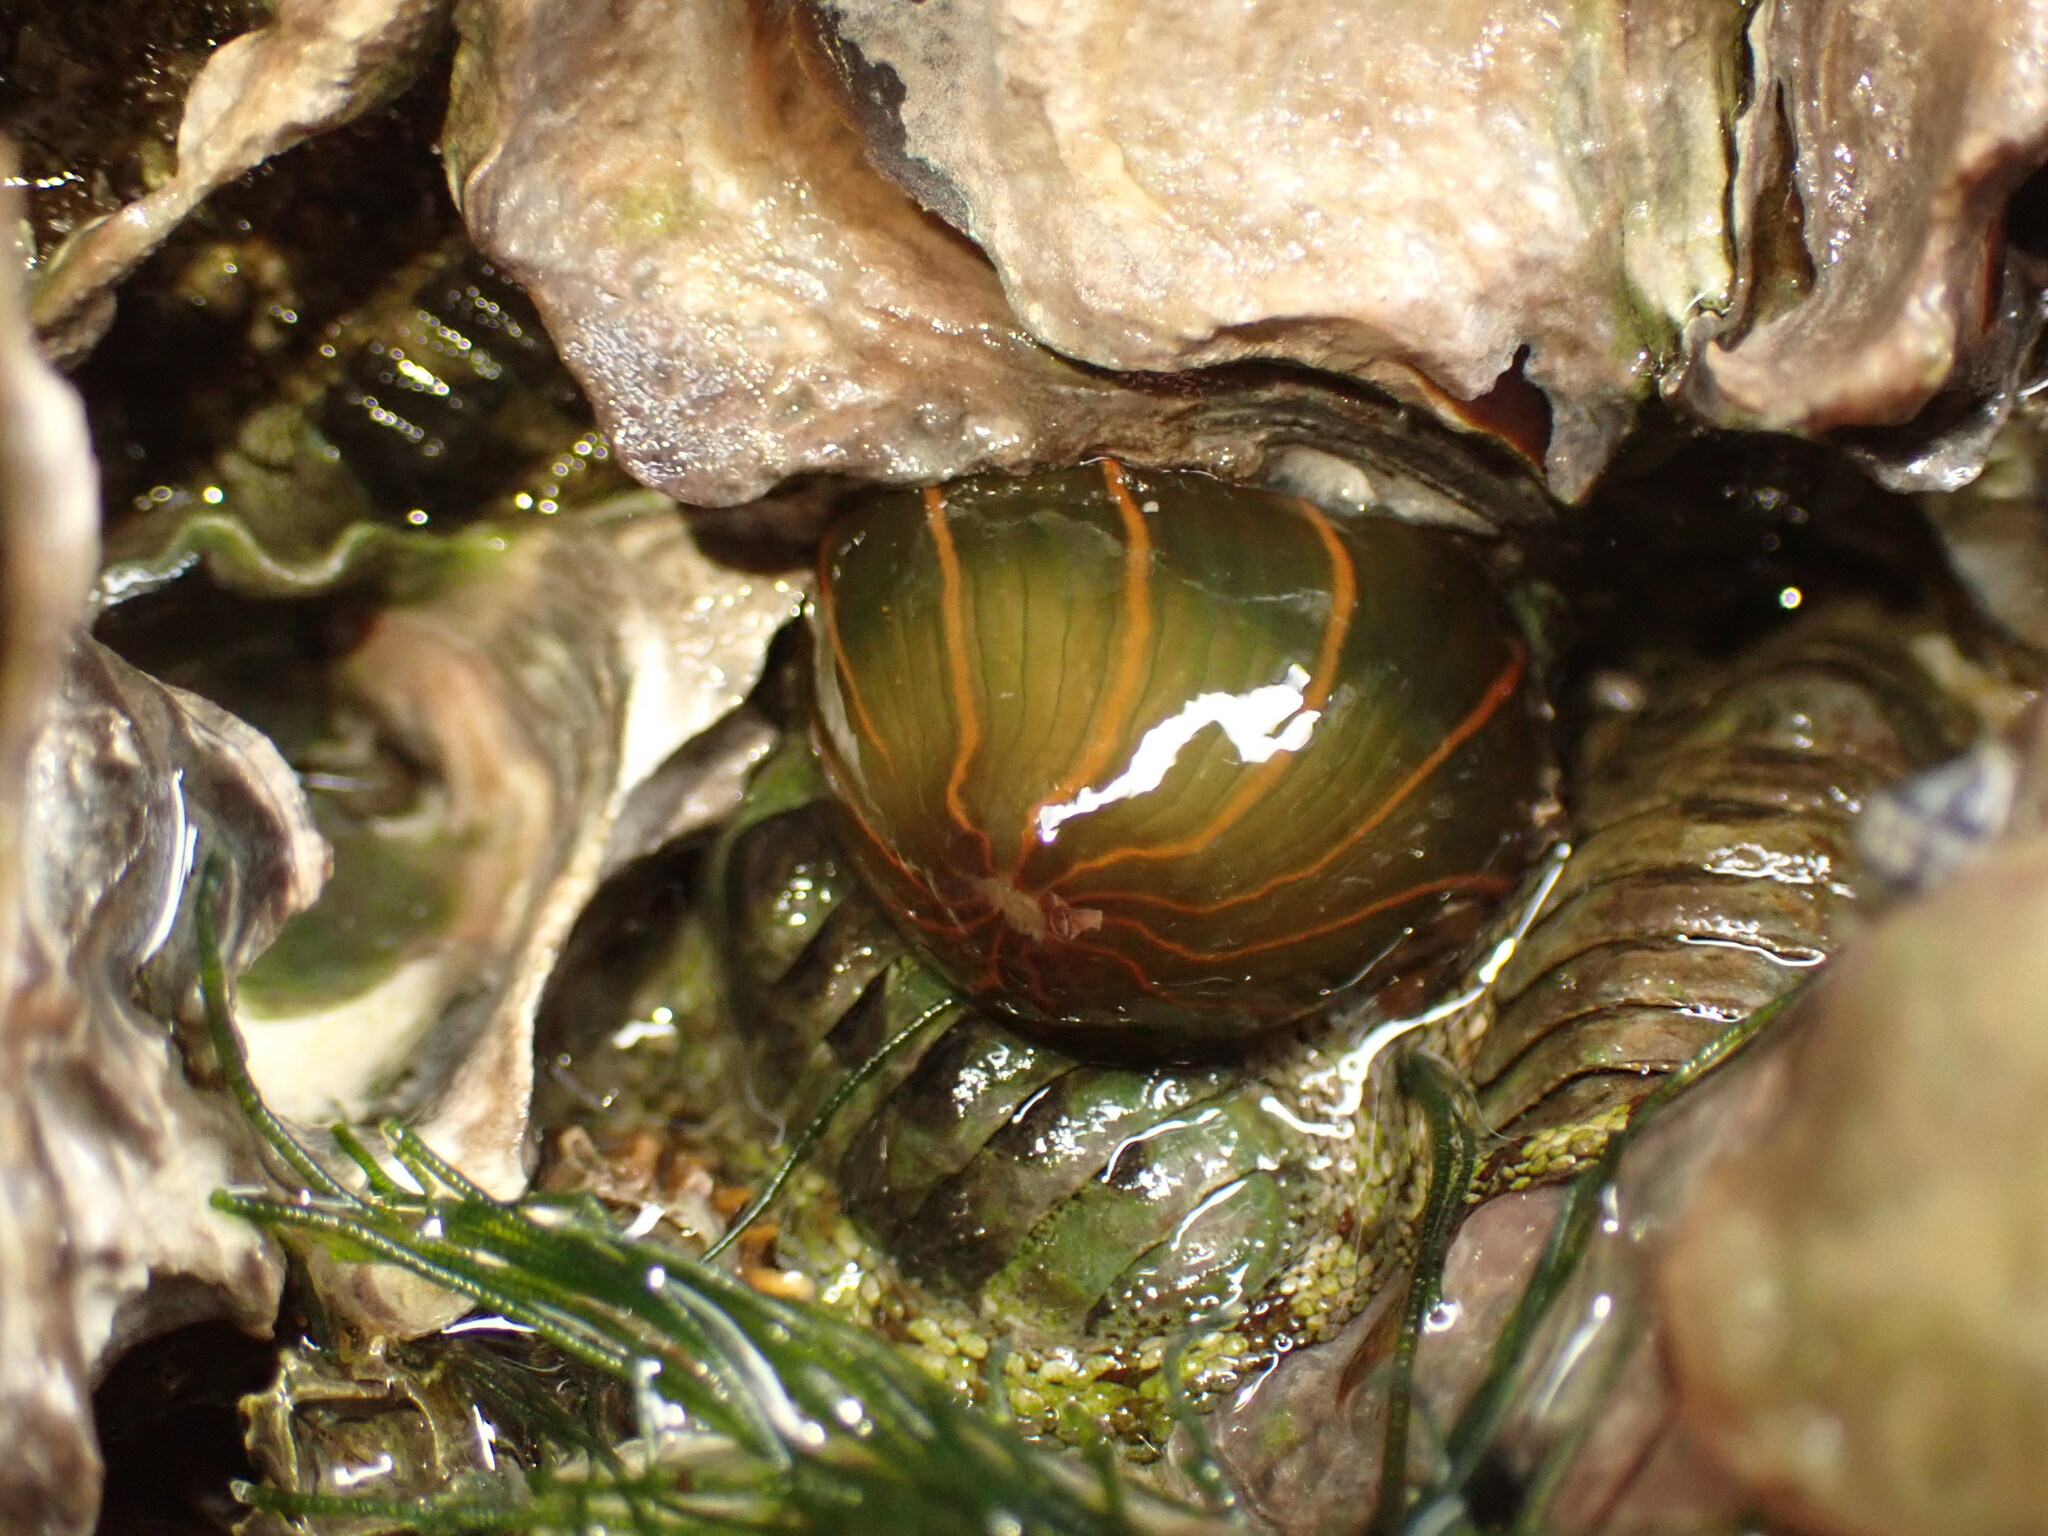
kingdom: Animalia
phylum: Cnidaria
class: Anthozoa
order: Actiniaria
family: Diadumenidae
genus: Diadumene
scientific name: Diadumene lineata
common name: Orange-striped anemone
